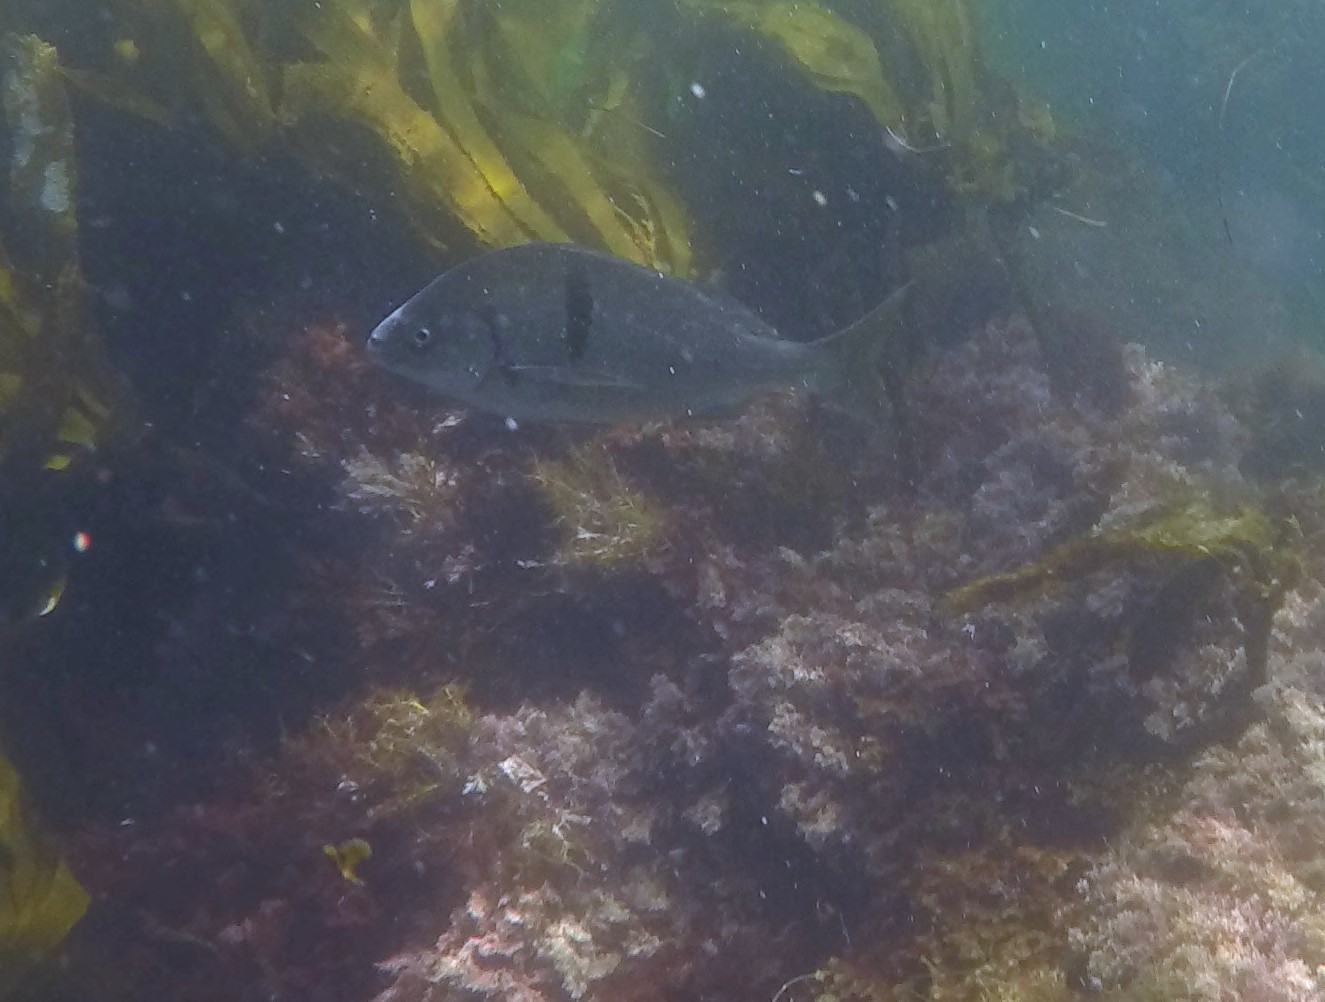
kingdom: Animalia
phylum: Chordata
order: Perciformes
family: Haemulidae
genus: Anisotremus
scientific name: Anisotremus davidsonii
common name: Grunt
